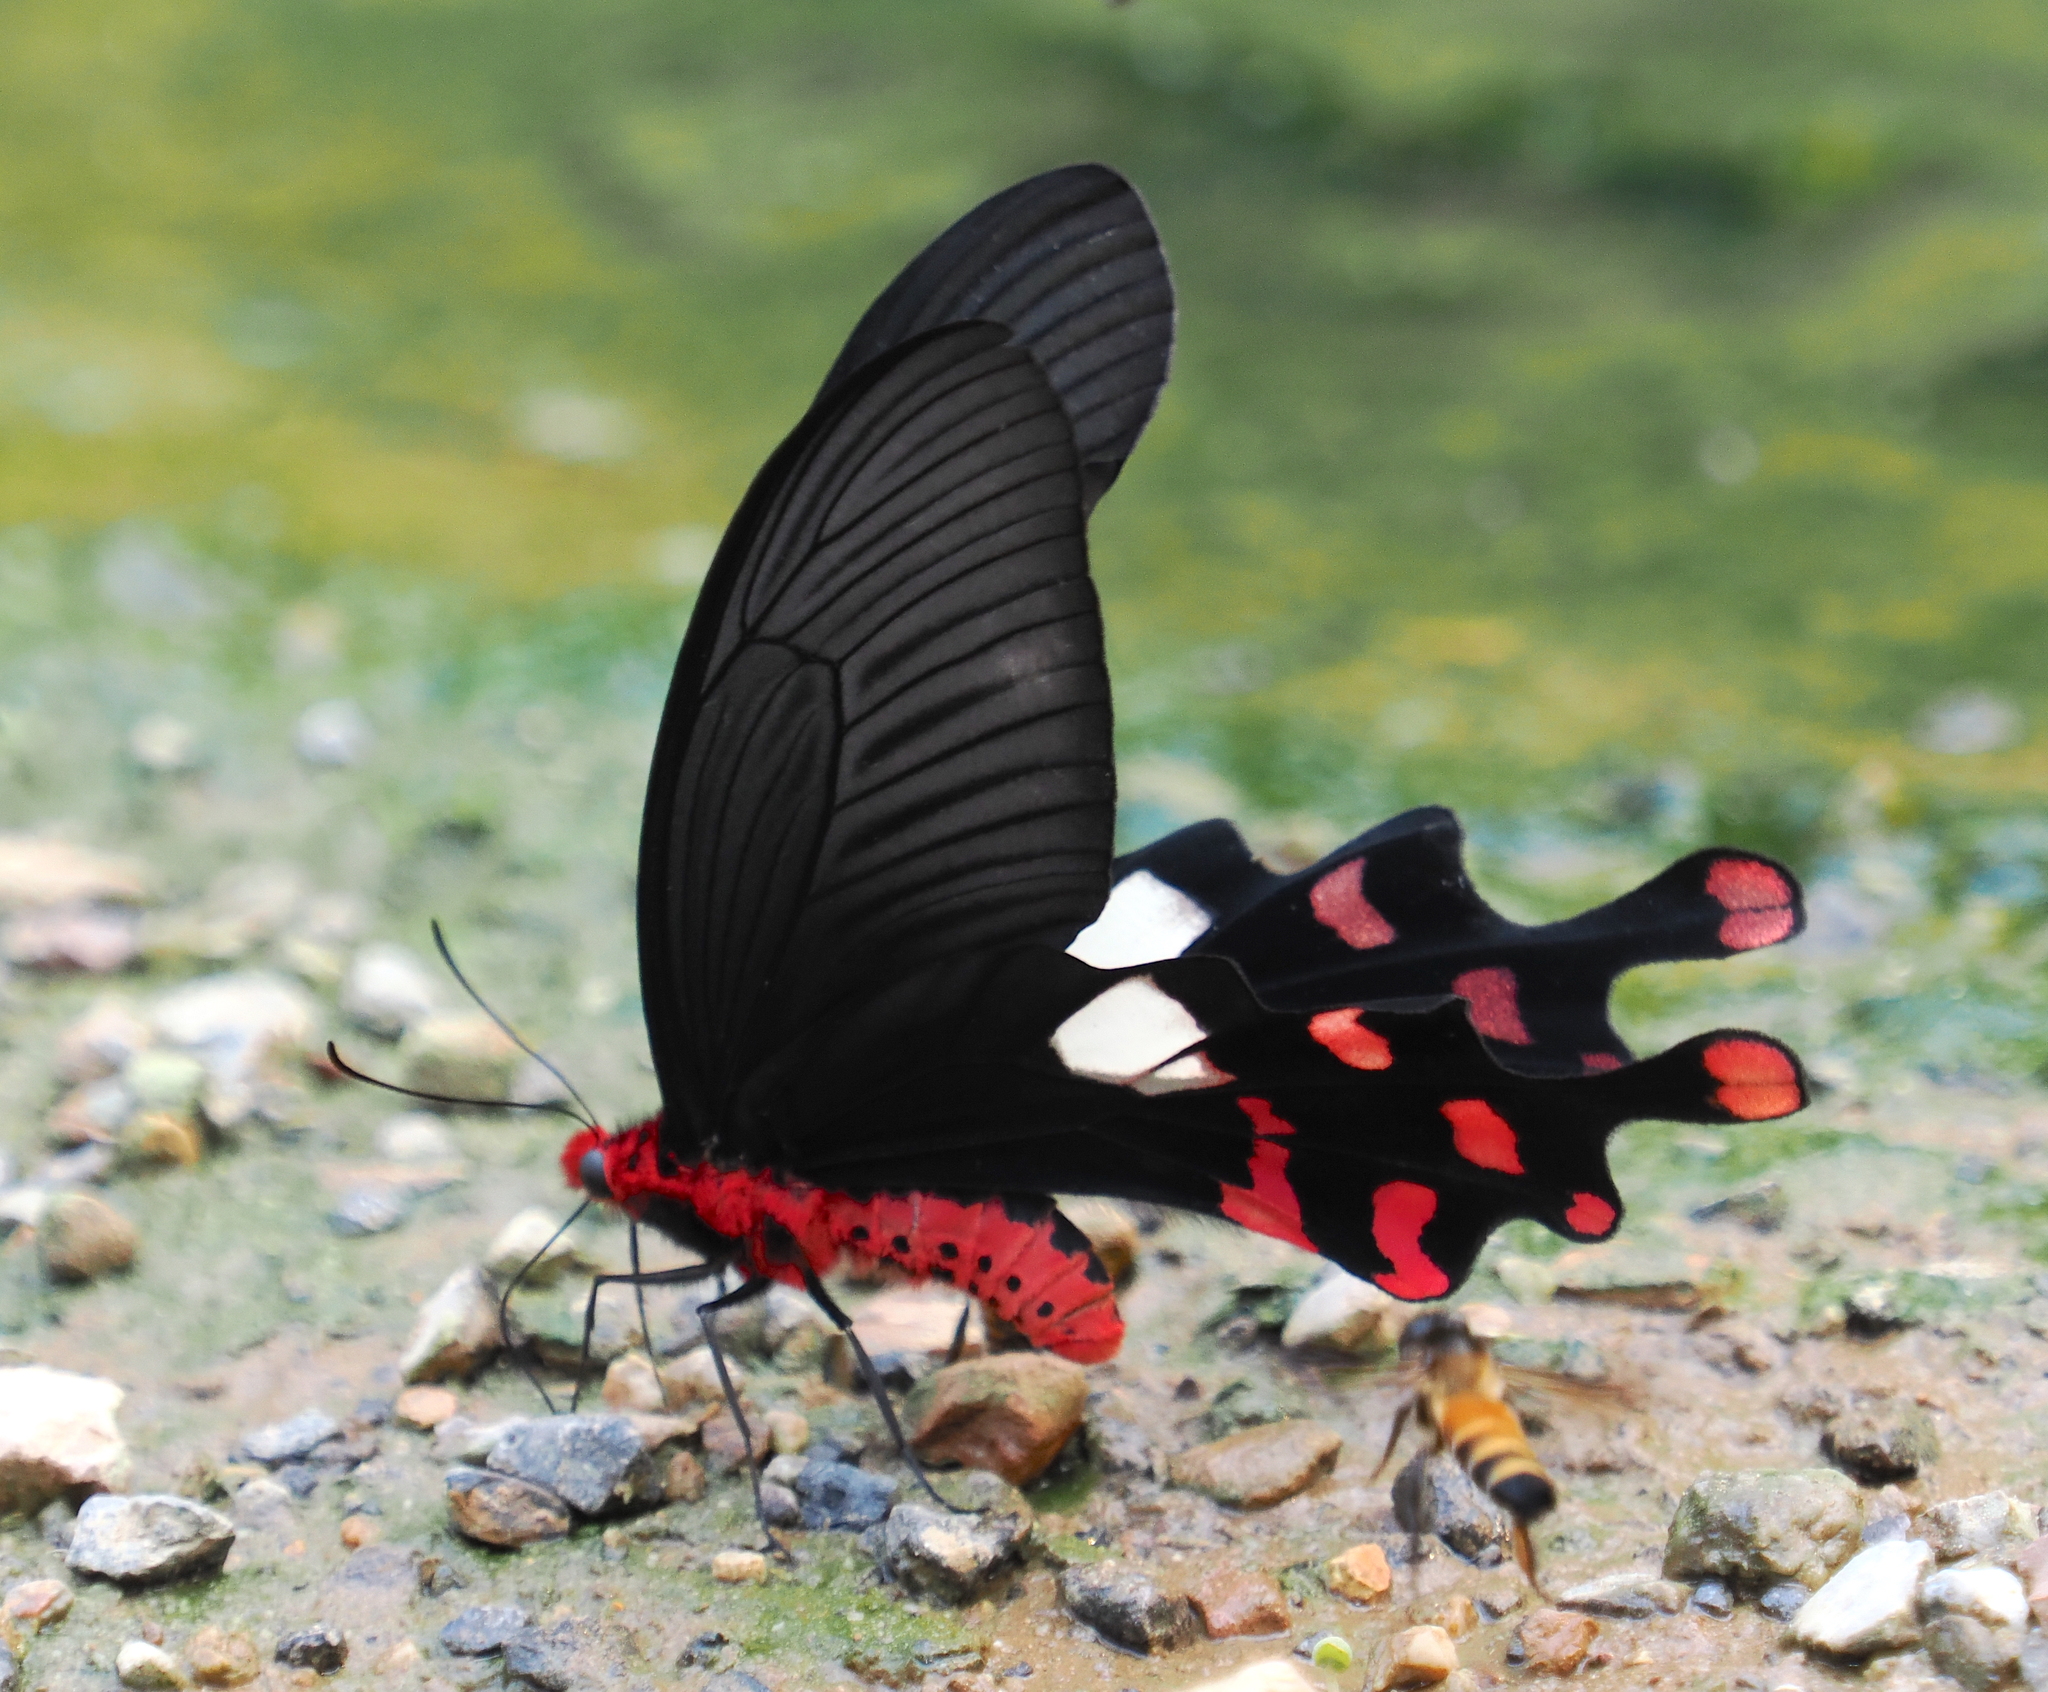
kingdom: Animalia
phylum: Arthropoda
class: Insecta
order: Lepidoptera
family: Papilionidae
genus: Byasa
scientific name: Byasa polyeuctes
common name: Common windmill
